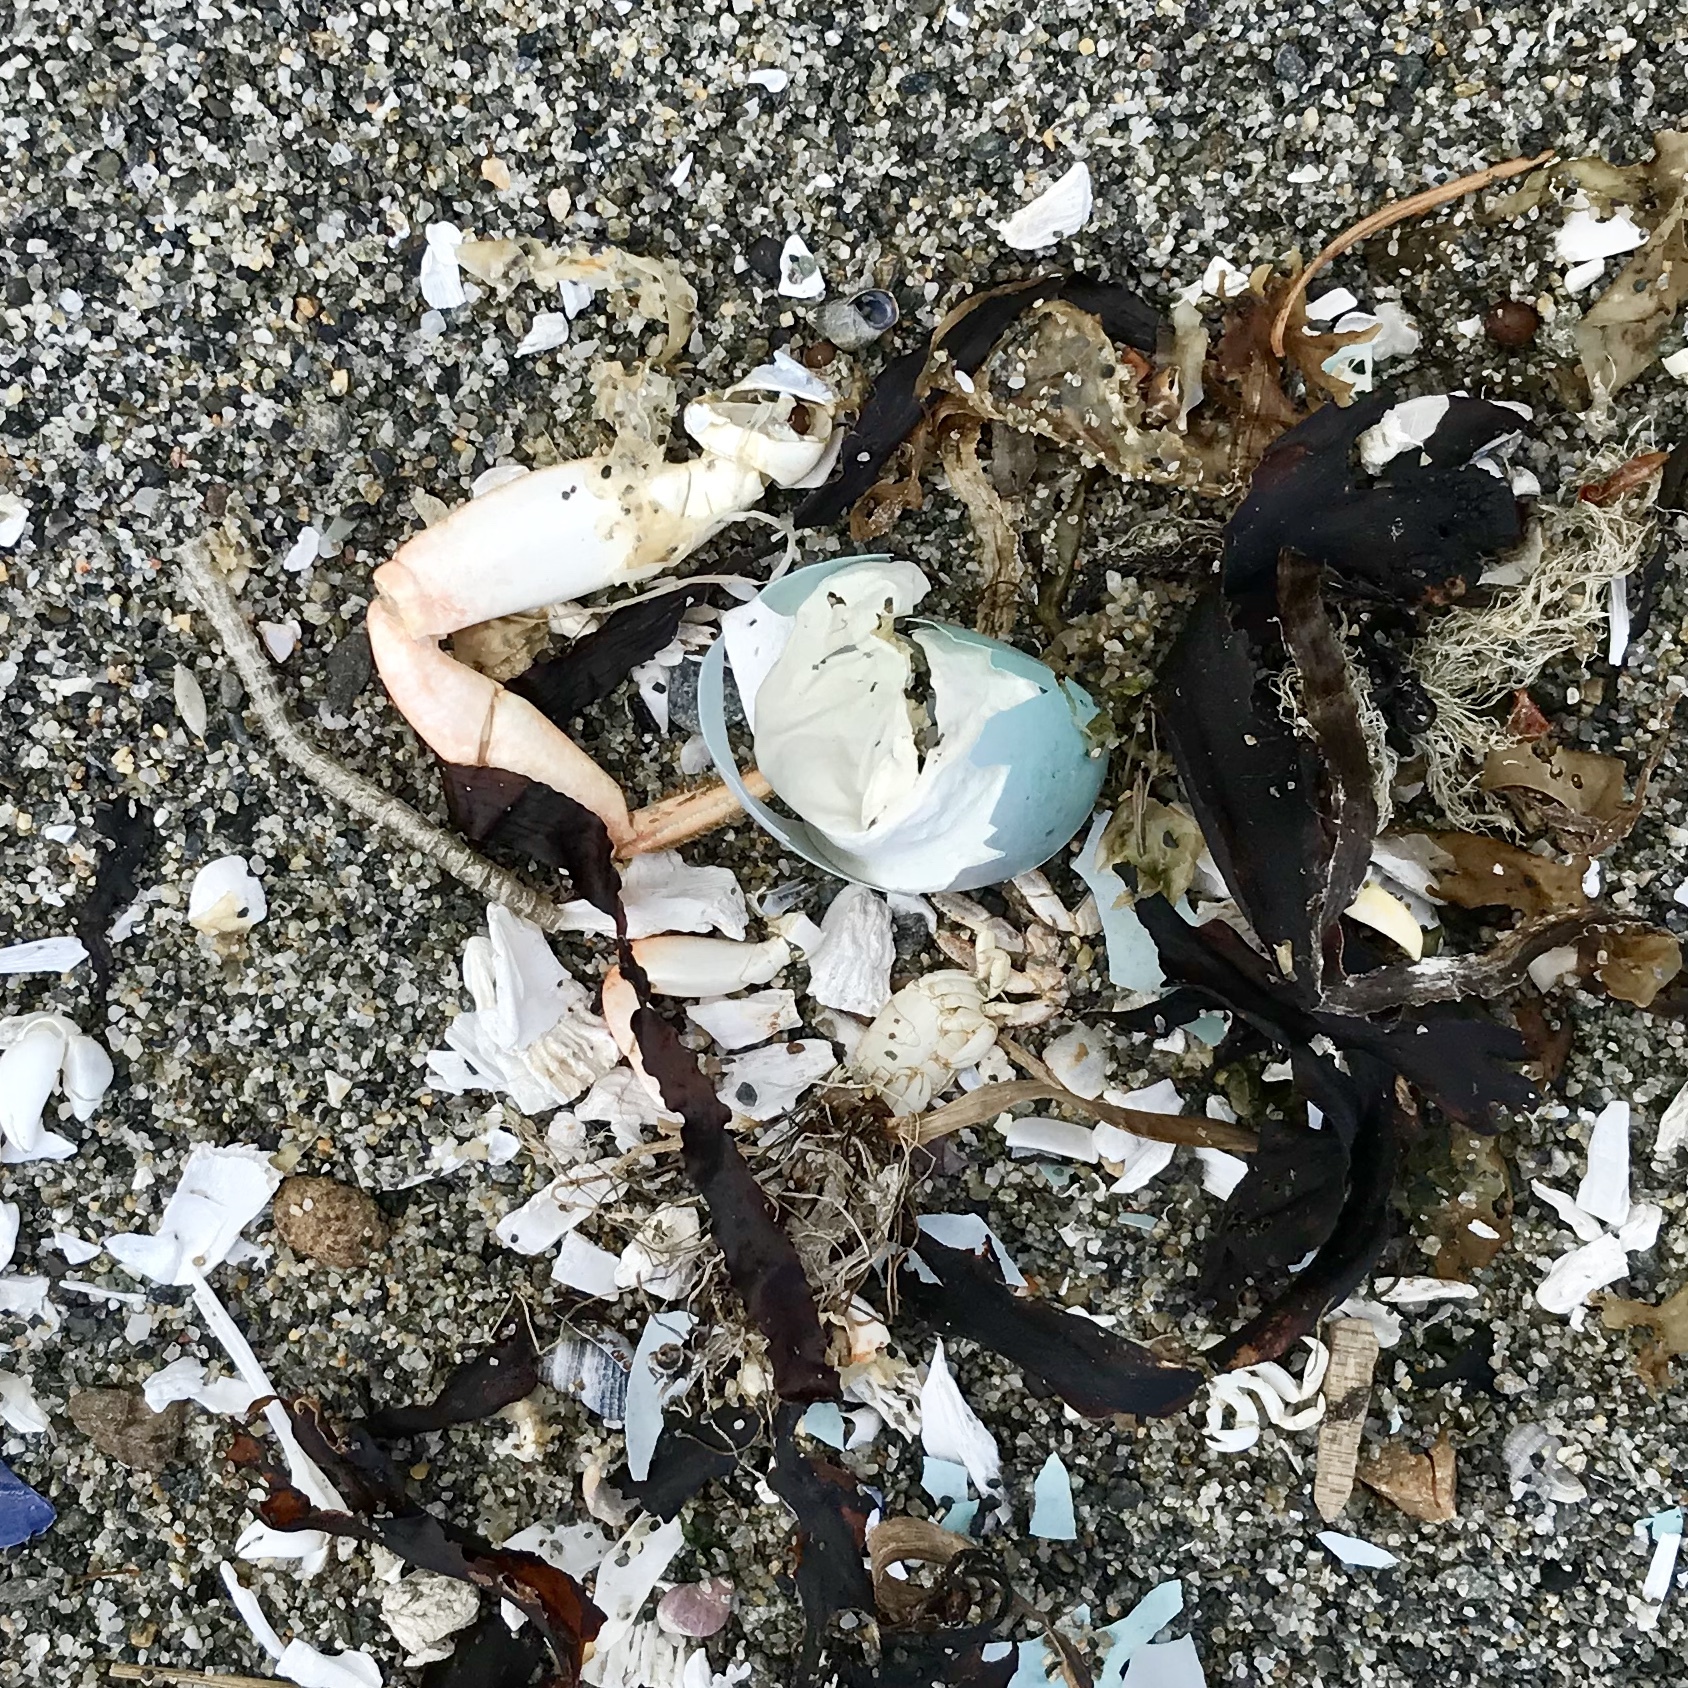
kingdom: Animalia
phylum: Chordata
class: Aves
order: Passeriformes
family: Turdidae
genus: Turdus
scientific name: Turdus migratorius
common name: American robin
